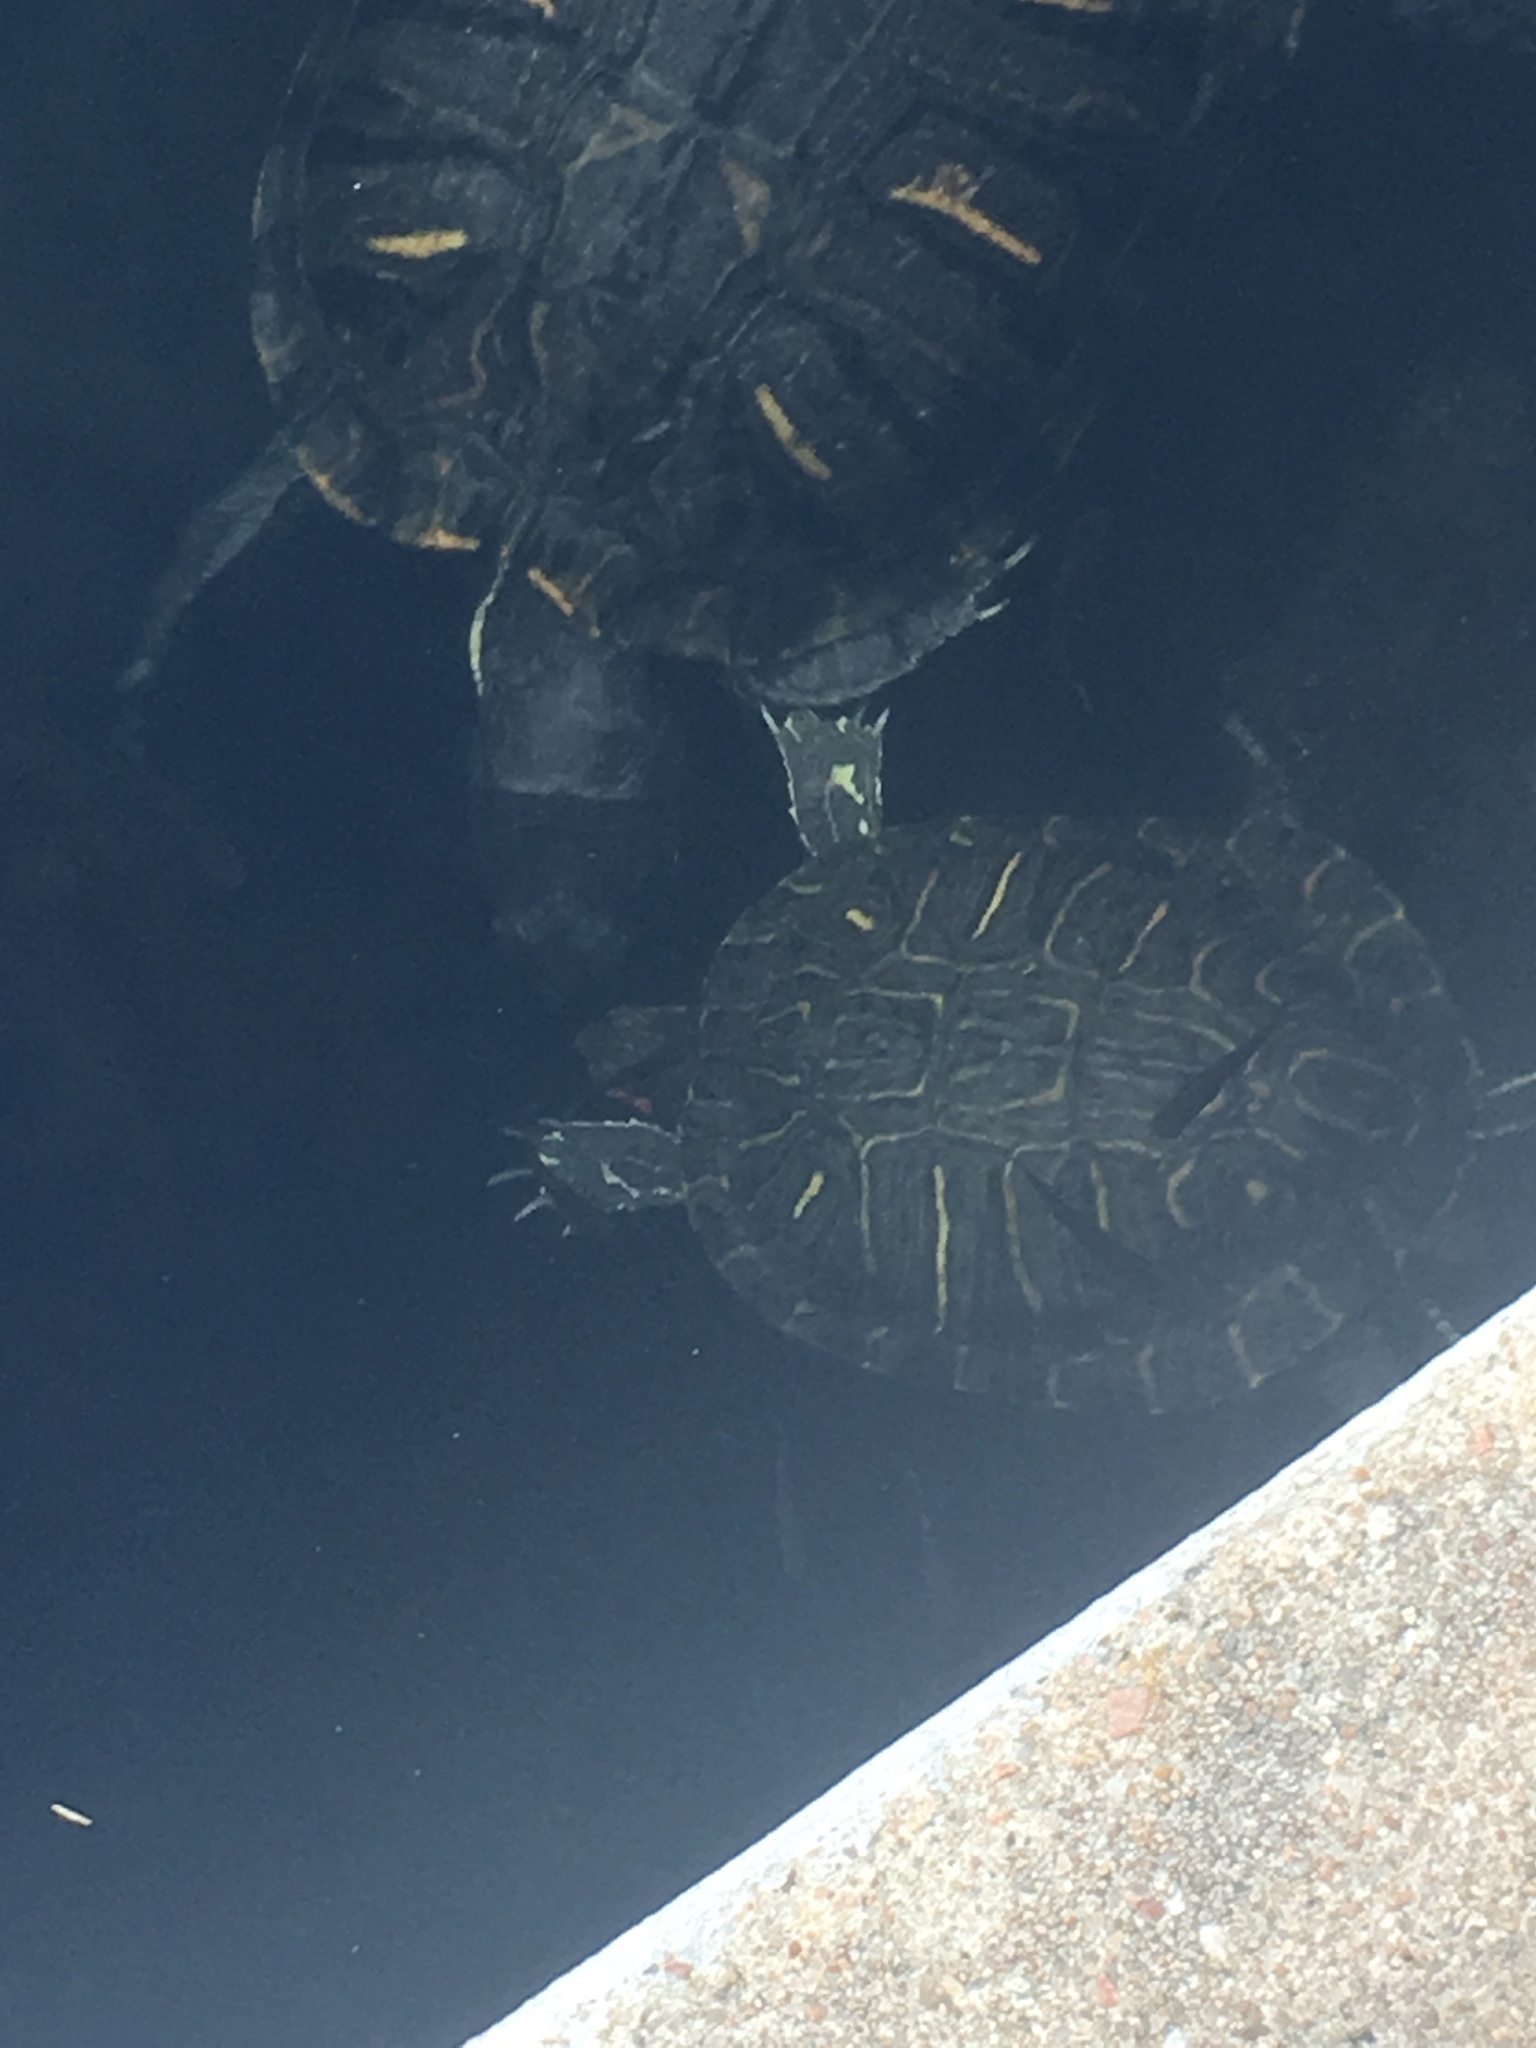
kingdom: Animalia
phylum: Chordata
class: Testudines
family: Emydidae
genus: Trachemys
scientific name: Trachemys scripta
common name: Slider
